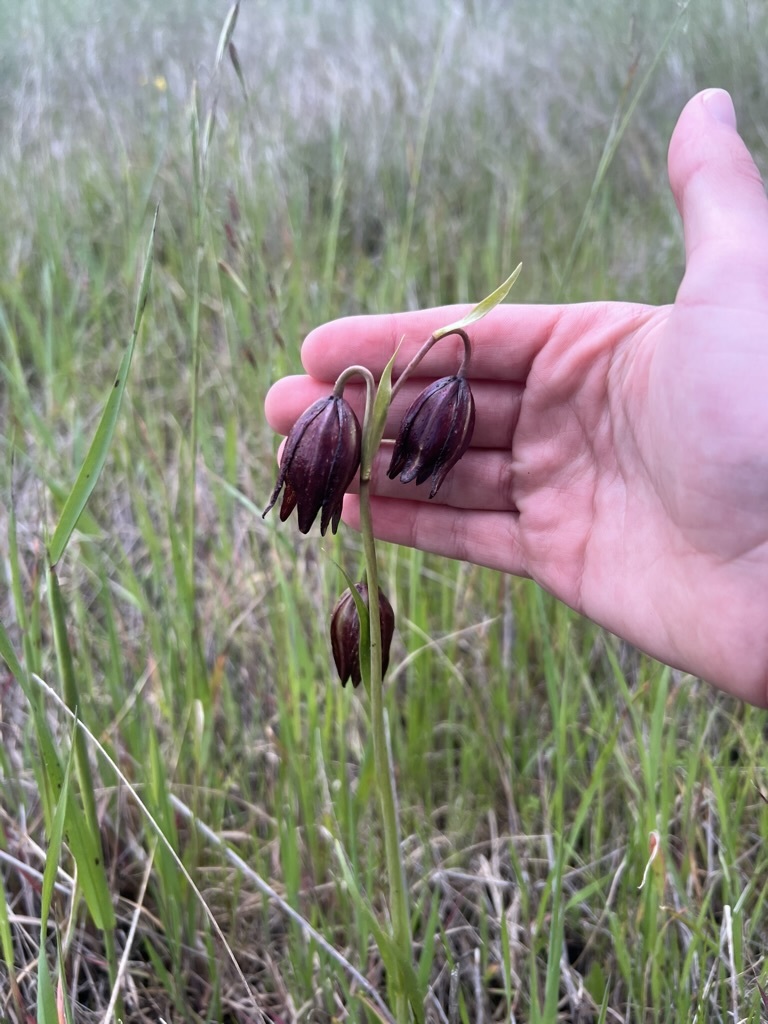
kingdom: Plantae
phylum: Tracheophyta
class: Liliopsida
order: Liliales
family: Liliaceae
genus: Fritillaria
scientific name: Fritillaria biflora
